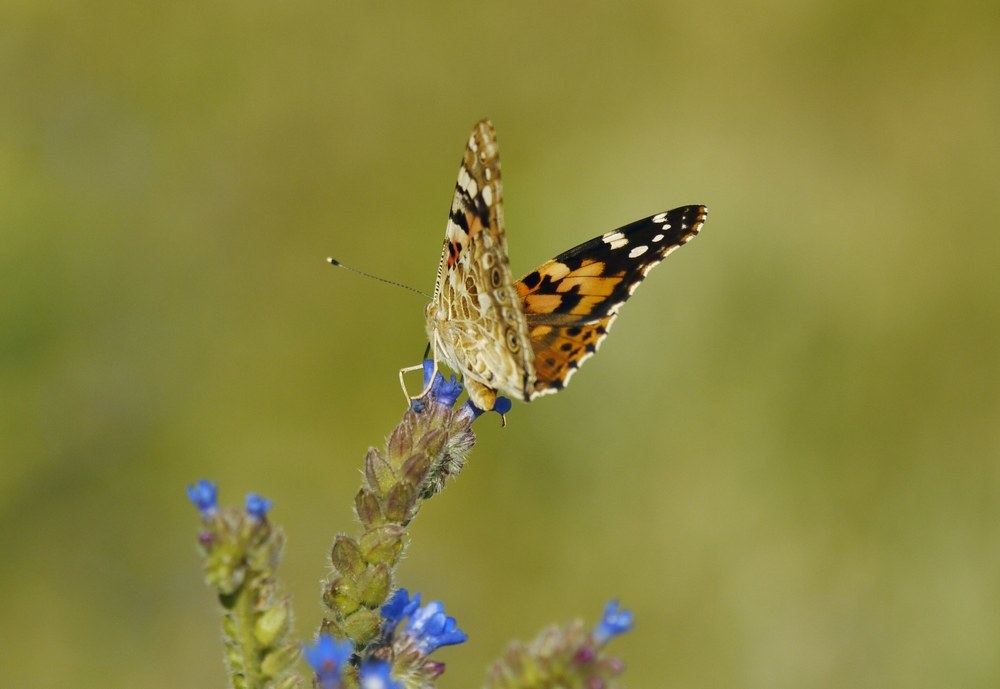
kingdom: Animalia
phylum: Arthropoda
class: Insecta
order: Lepidoptera
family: Nymphalidae
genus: Vanessa
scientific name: Vanessa cardui
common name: Painted lady
